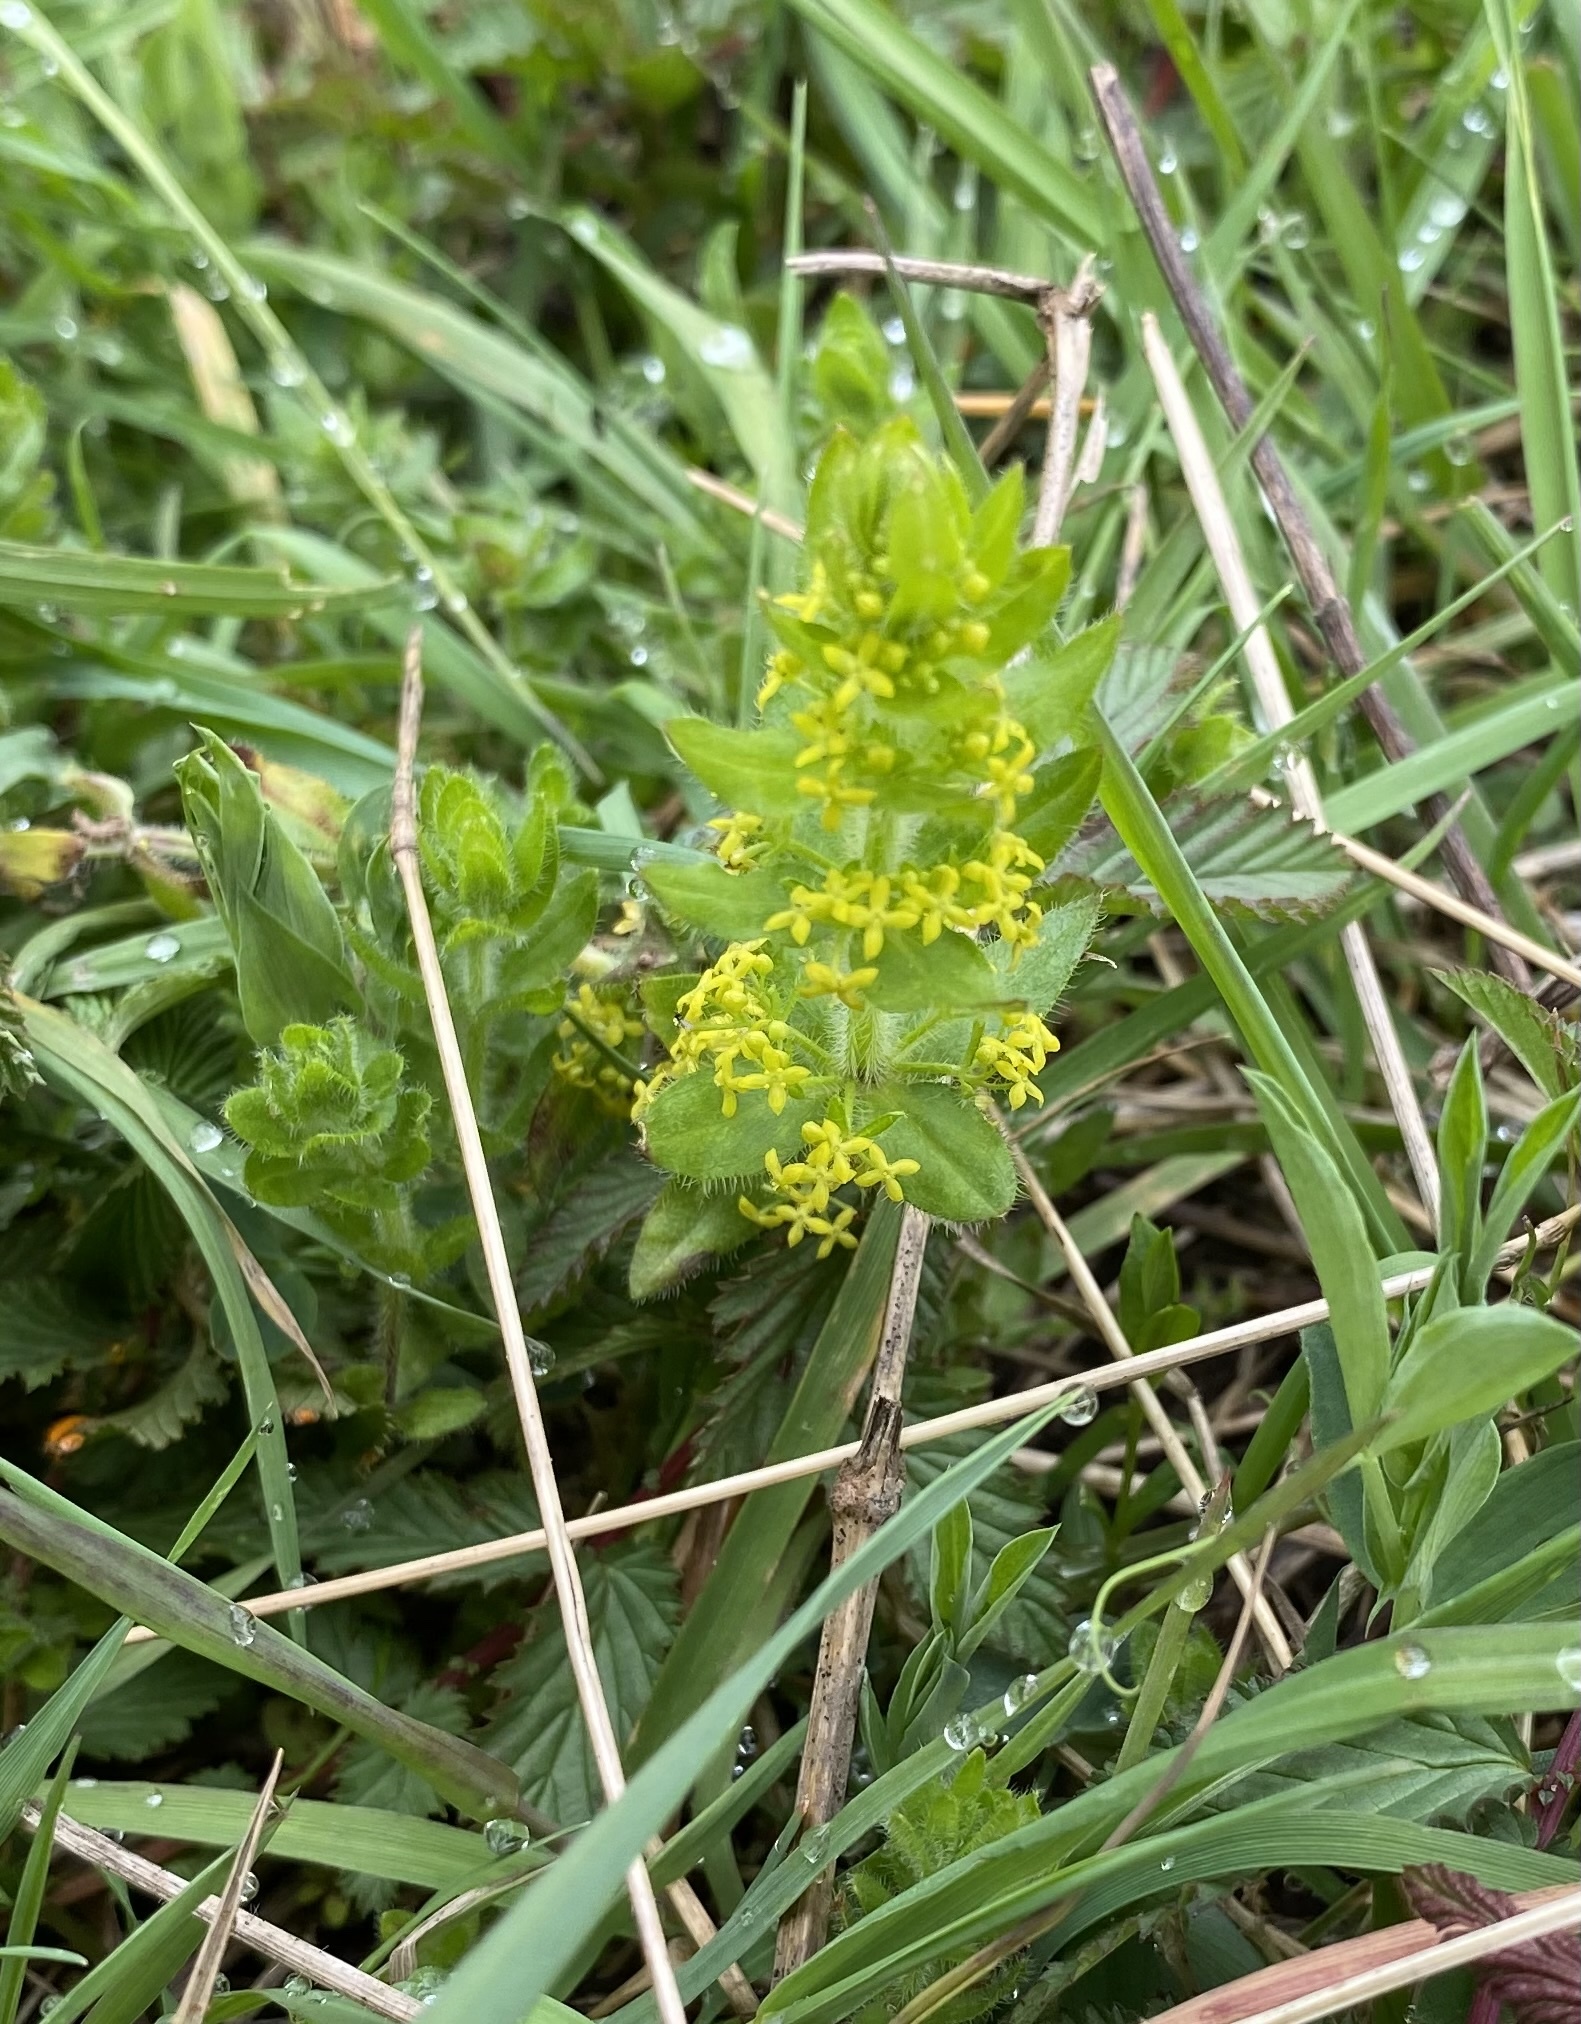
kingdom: Plantae
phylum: Tracheophyta
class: Magnoliopsida
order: Gentianales
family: Rubiaceae
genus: Cruciata
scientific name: Cruciata laevipes
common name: Crosswort
